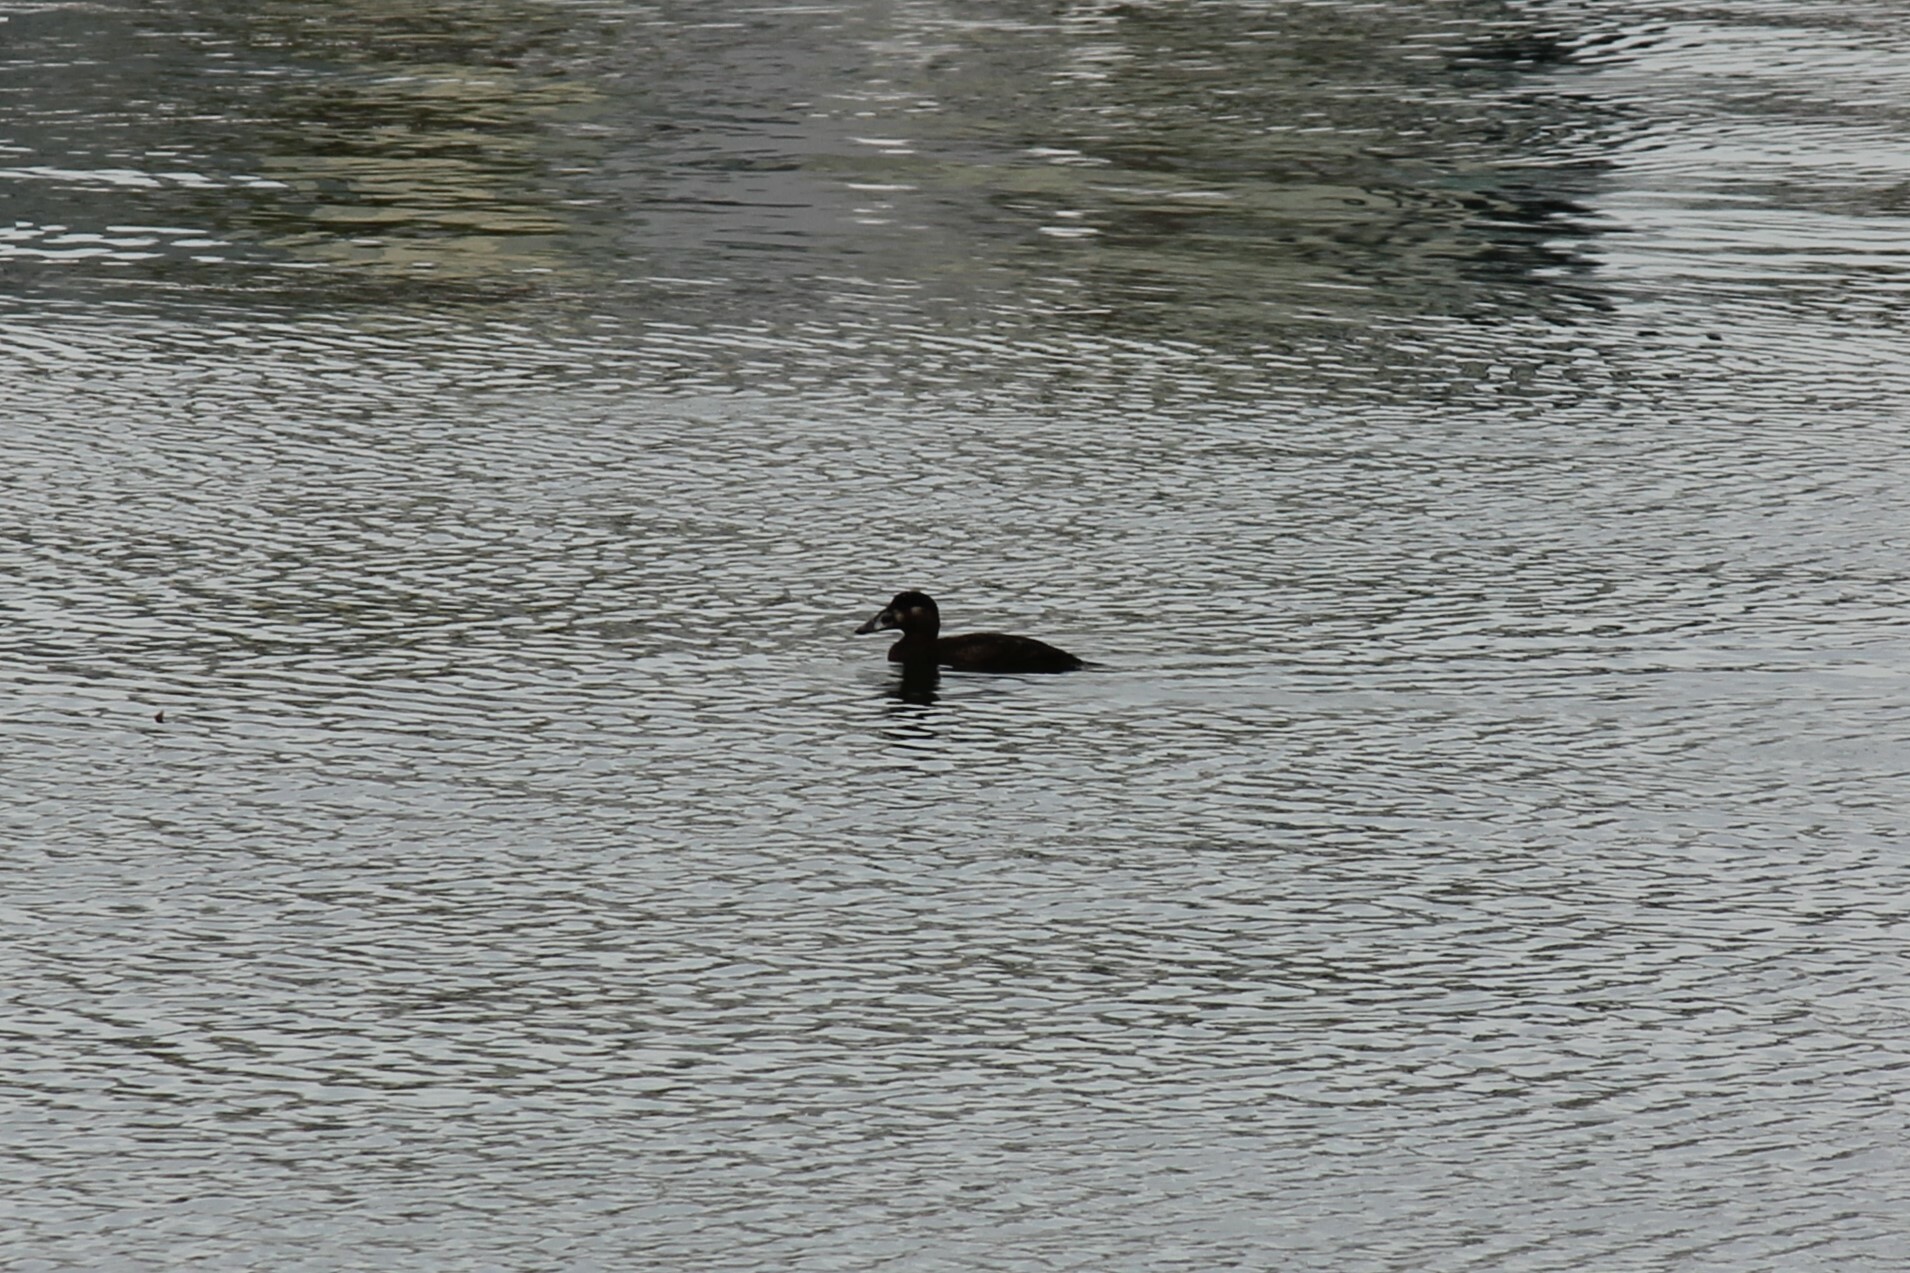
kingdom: Animalia
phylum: Chordata
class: Aves
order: Anseriformes
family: Anatidae
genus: Melanitta
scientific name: Melanitta perspicillata
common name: Surf scoter
